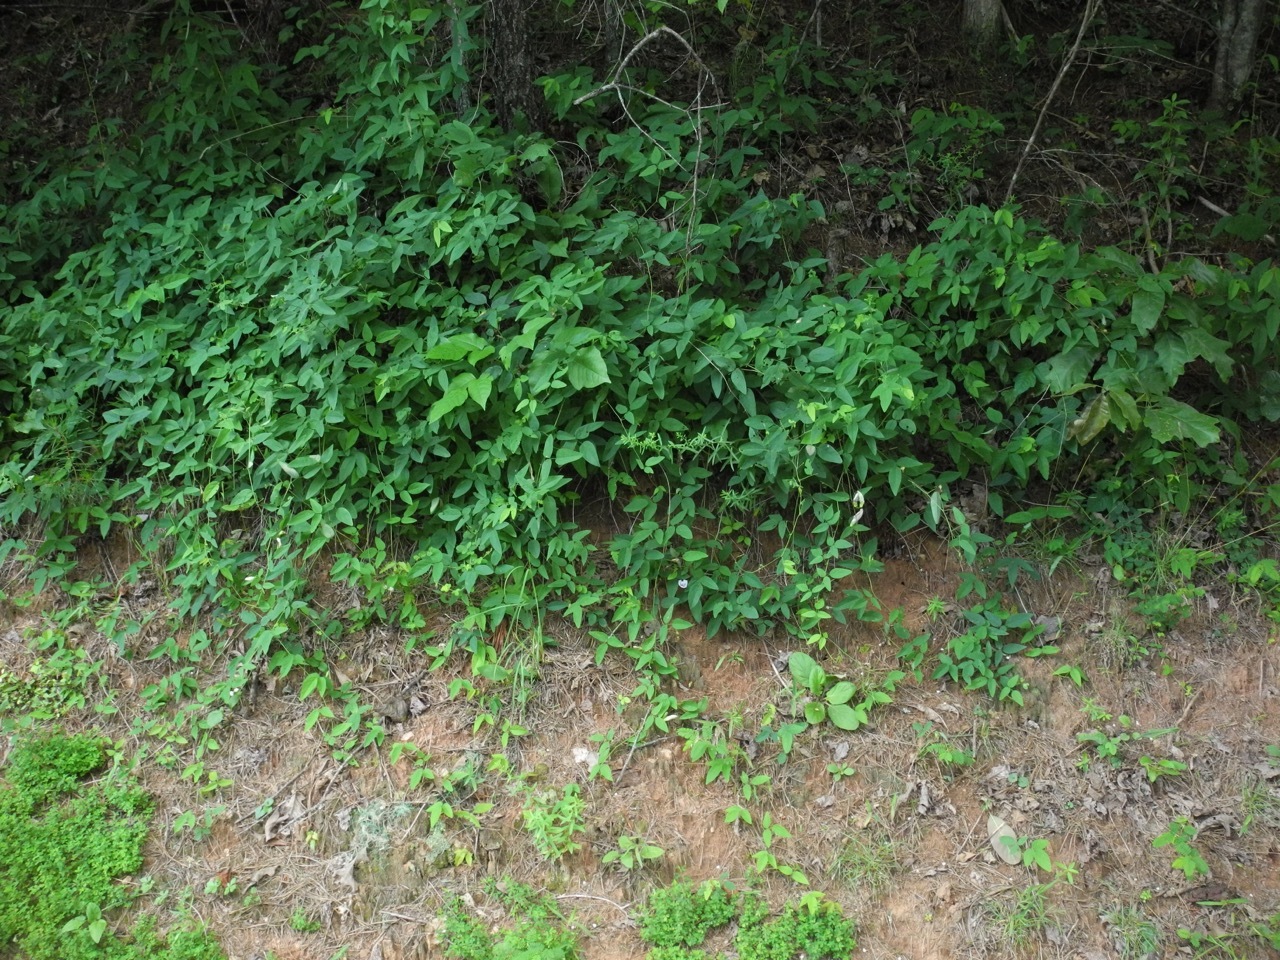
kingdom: Plantae
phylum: Tracheophyta
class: Magnoliopsida
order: Fabales
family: Fabaceae
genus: Clitoria
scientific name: Clitoria mariana
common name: Butterfly-pea
